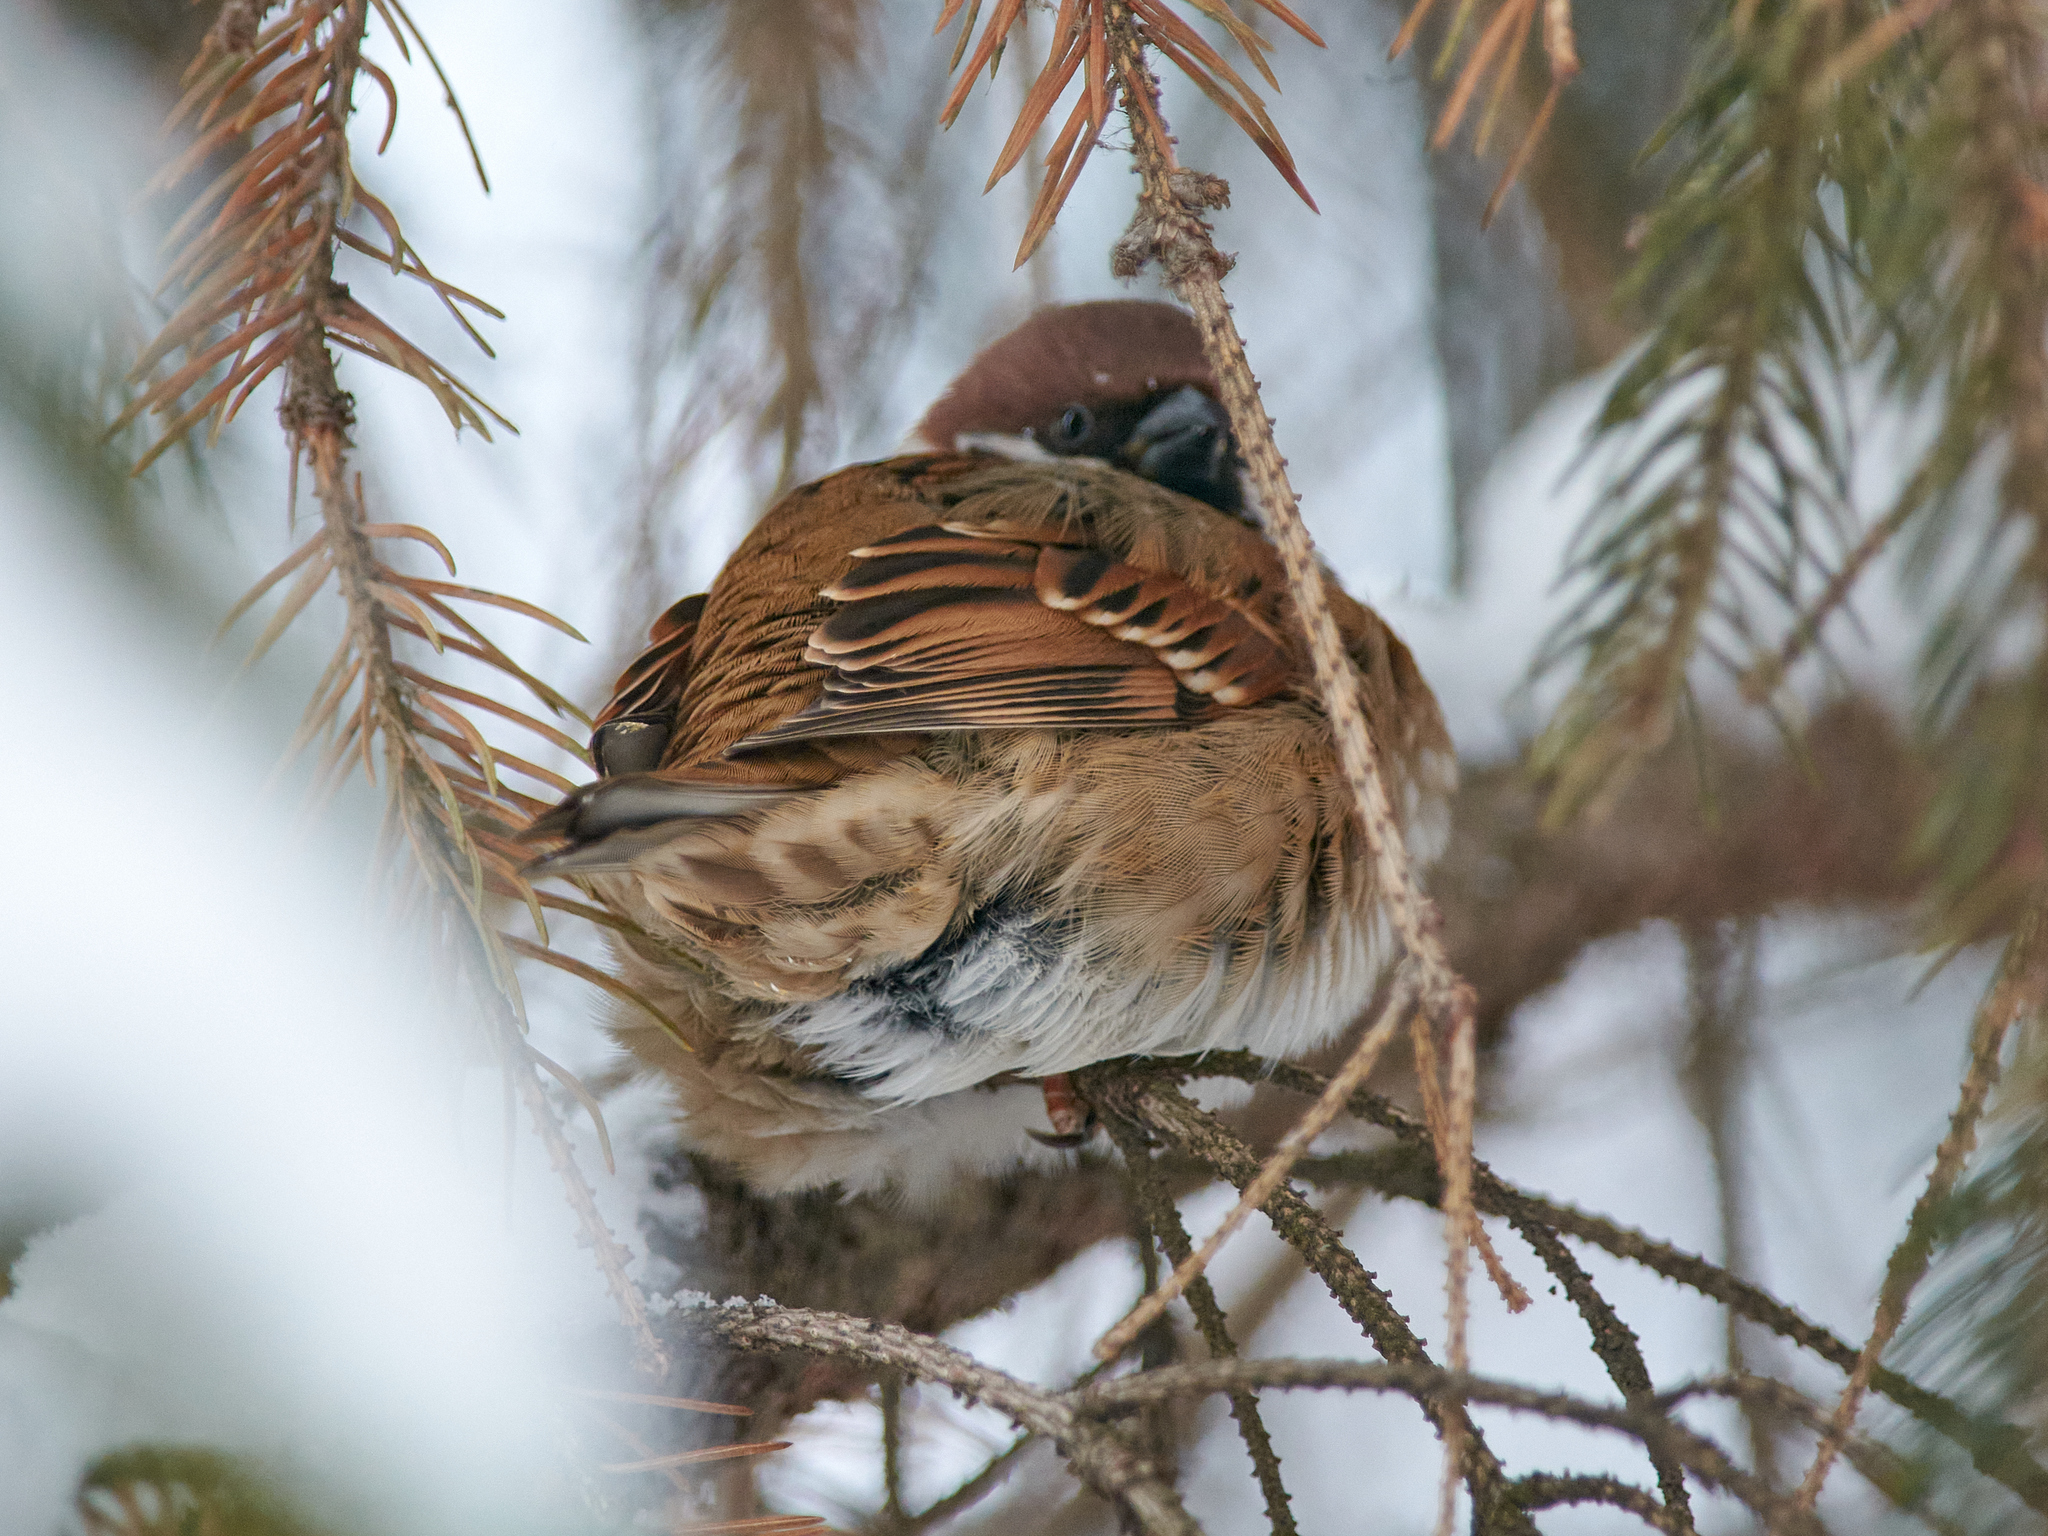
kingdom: Animalia
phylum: Chordata
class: Aves
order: Passeriformes
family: Passeridae
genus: Passer
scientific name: Passer montanus
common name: Eurasian tree sparrow
